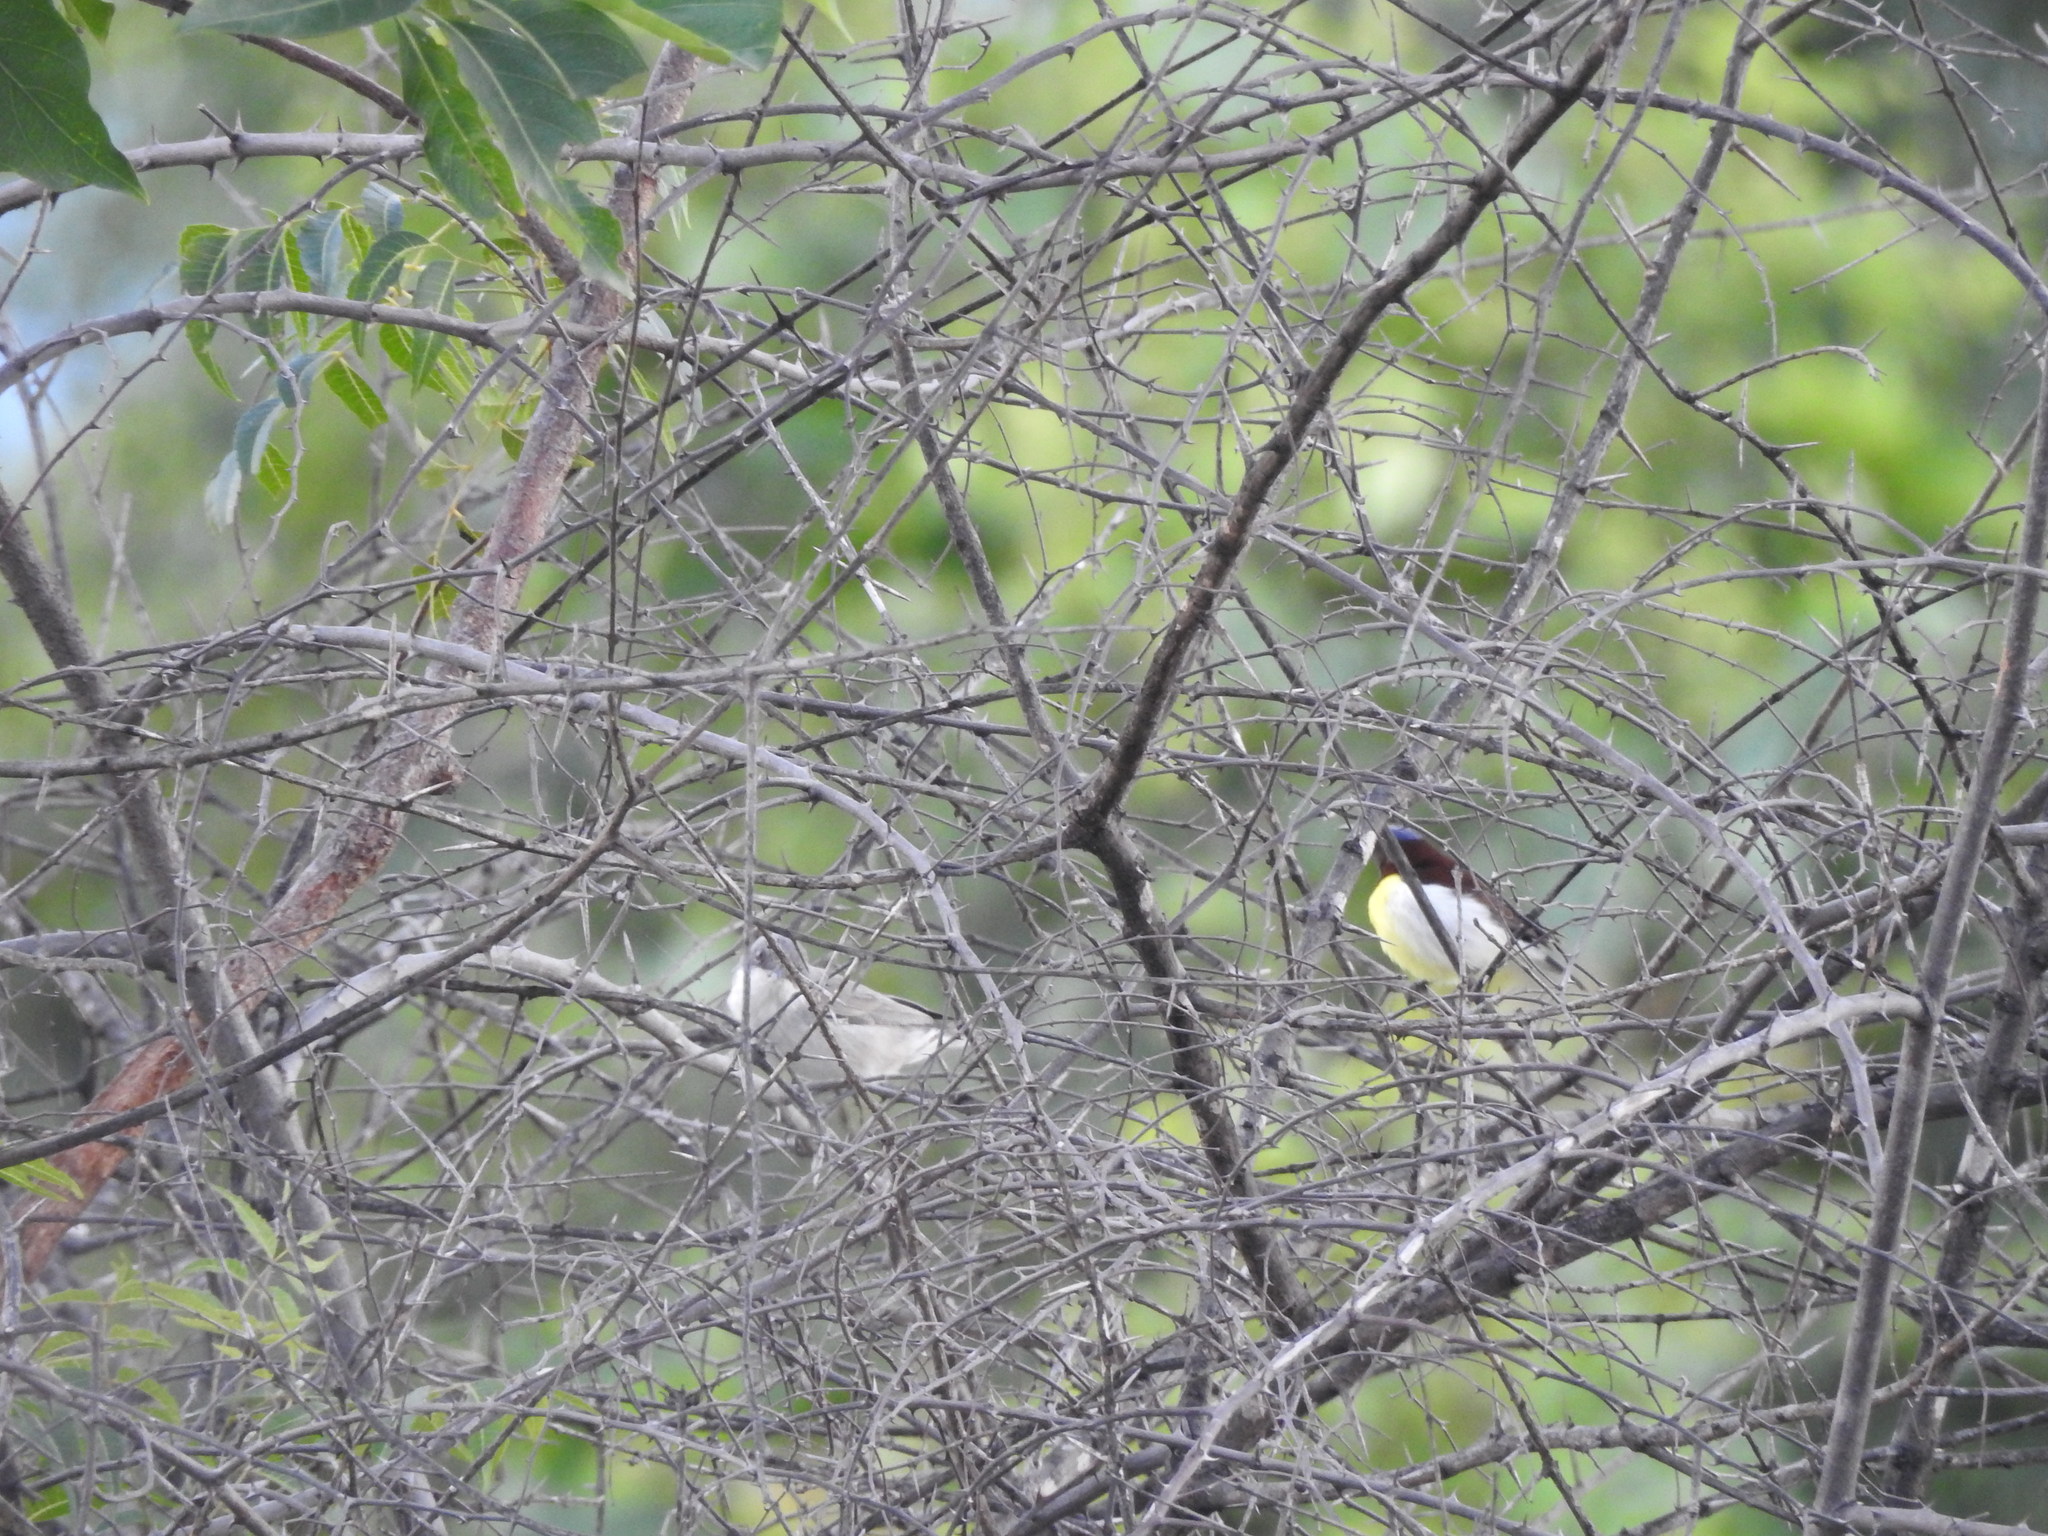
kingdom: Animalia
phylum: Chordata
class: Aves
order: Passeriformes
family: Nectariniidae
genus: Leptocoma
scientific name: Leptocoma zeylonica
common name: Purple-rumped sunbird
